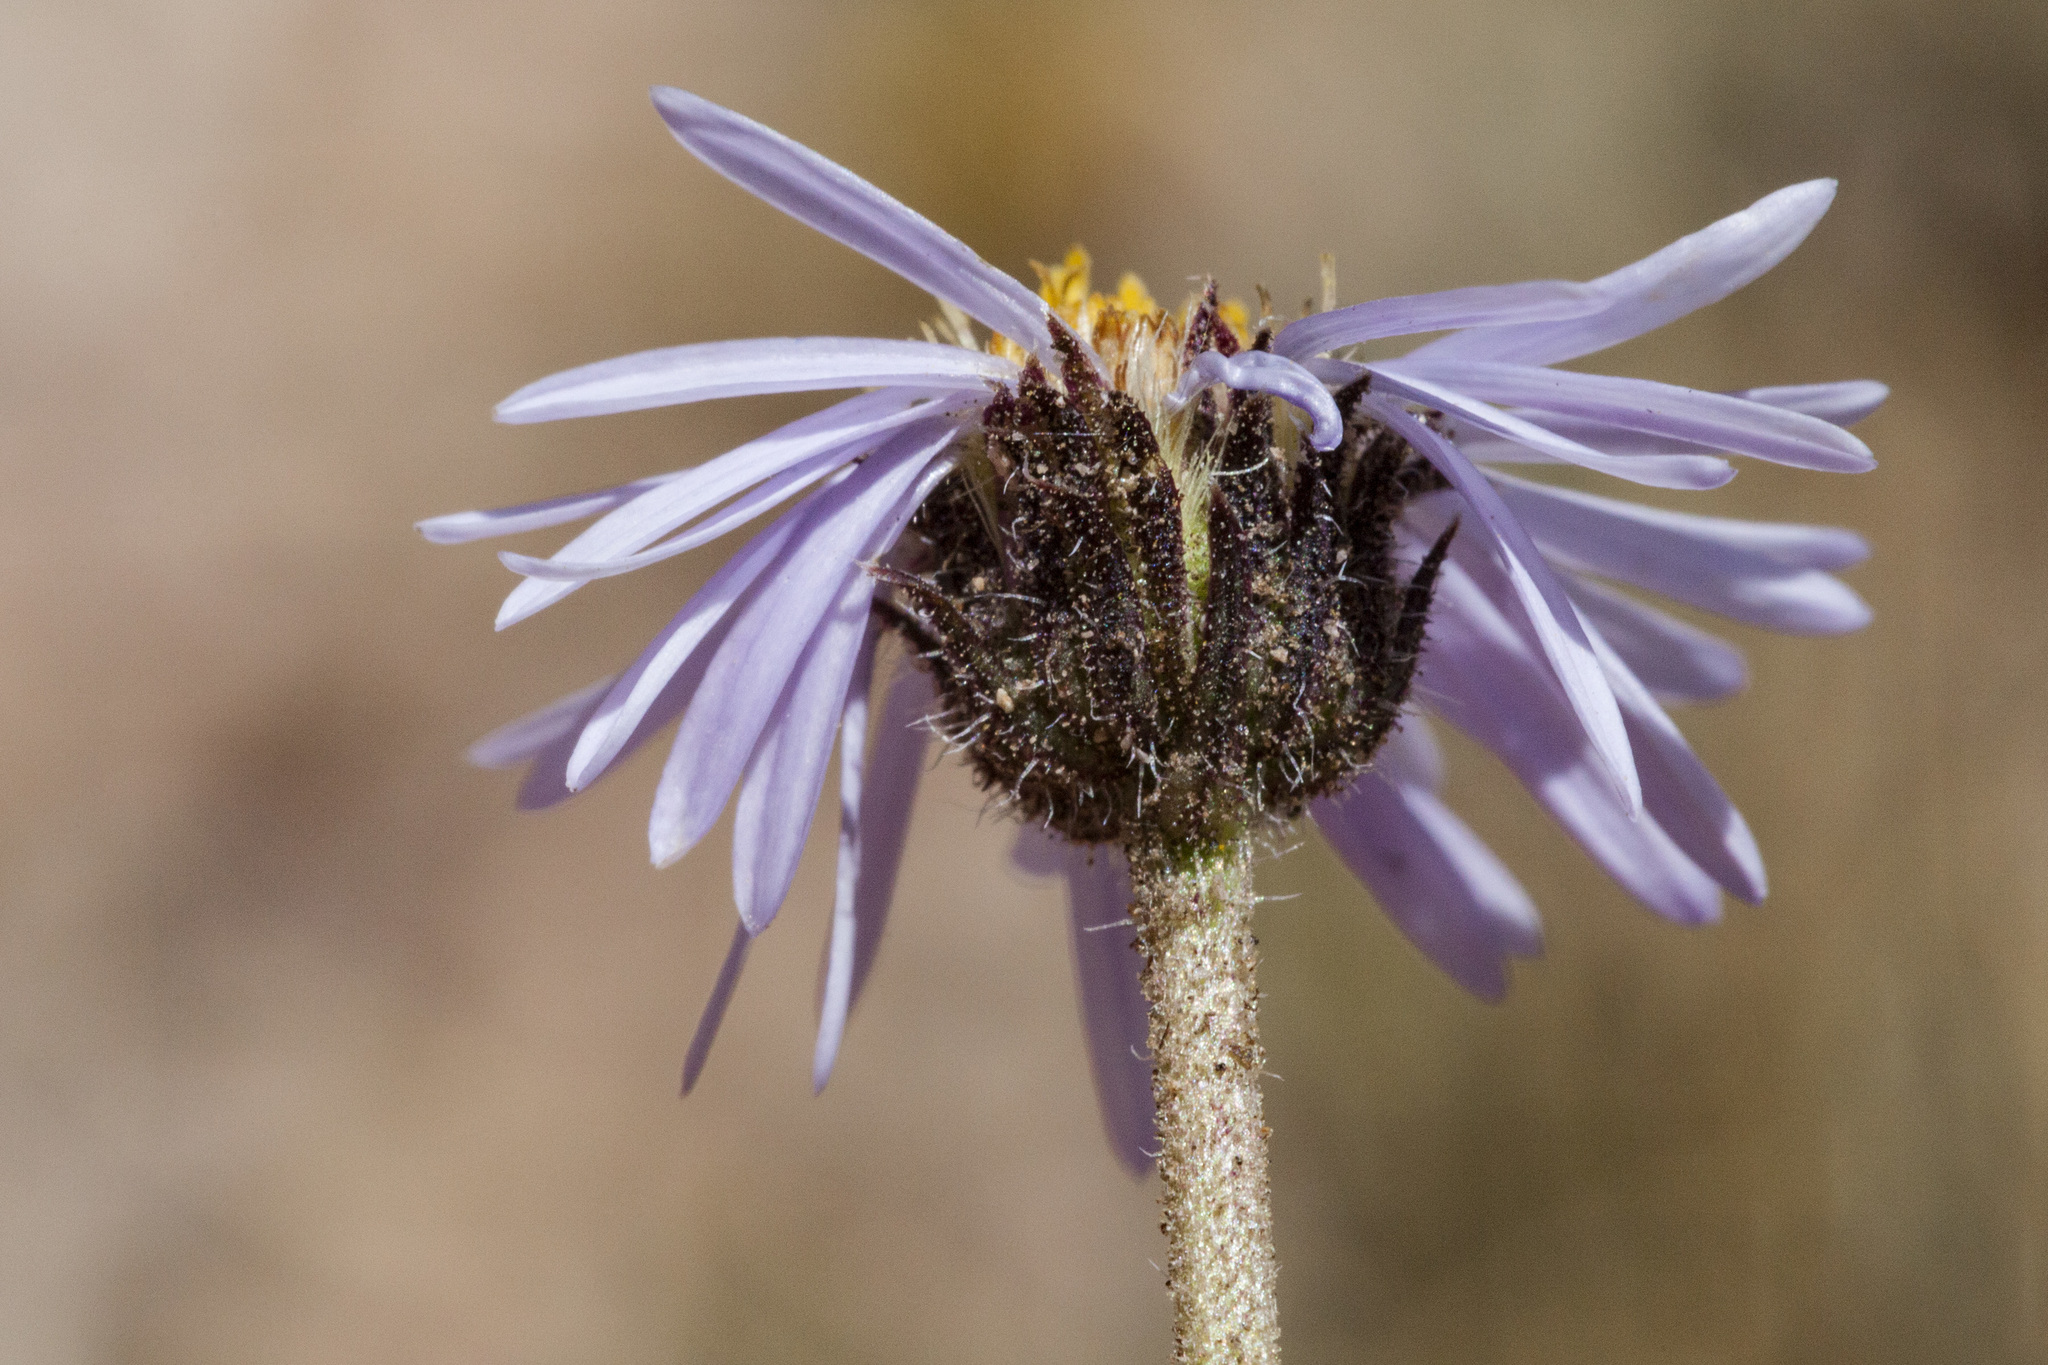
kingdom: Plantae
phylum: Tracheophyta
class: Magnoliopsida
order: Asterales
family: Asteraceae
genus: Erigeron
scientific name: Erigeron pinnatisectus
